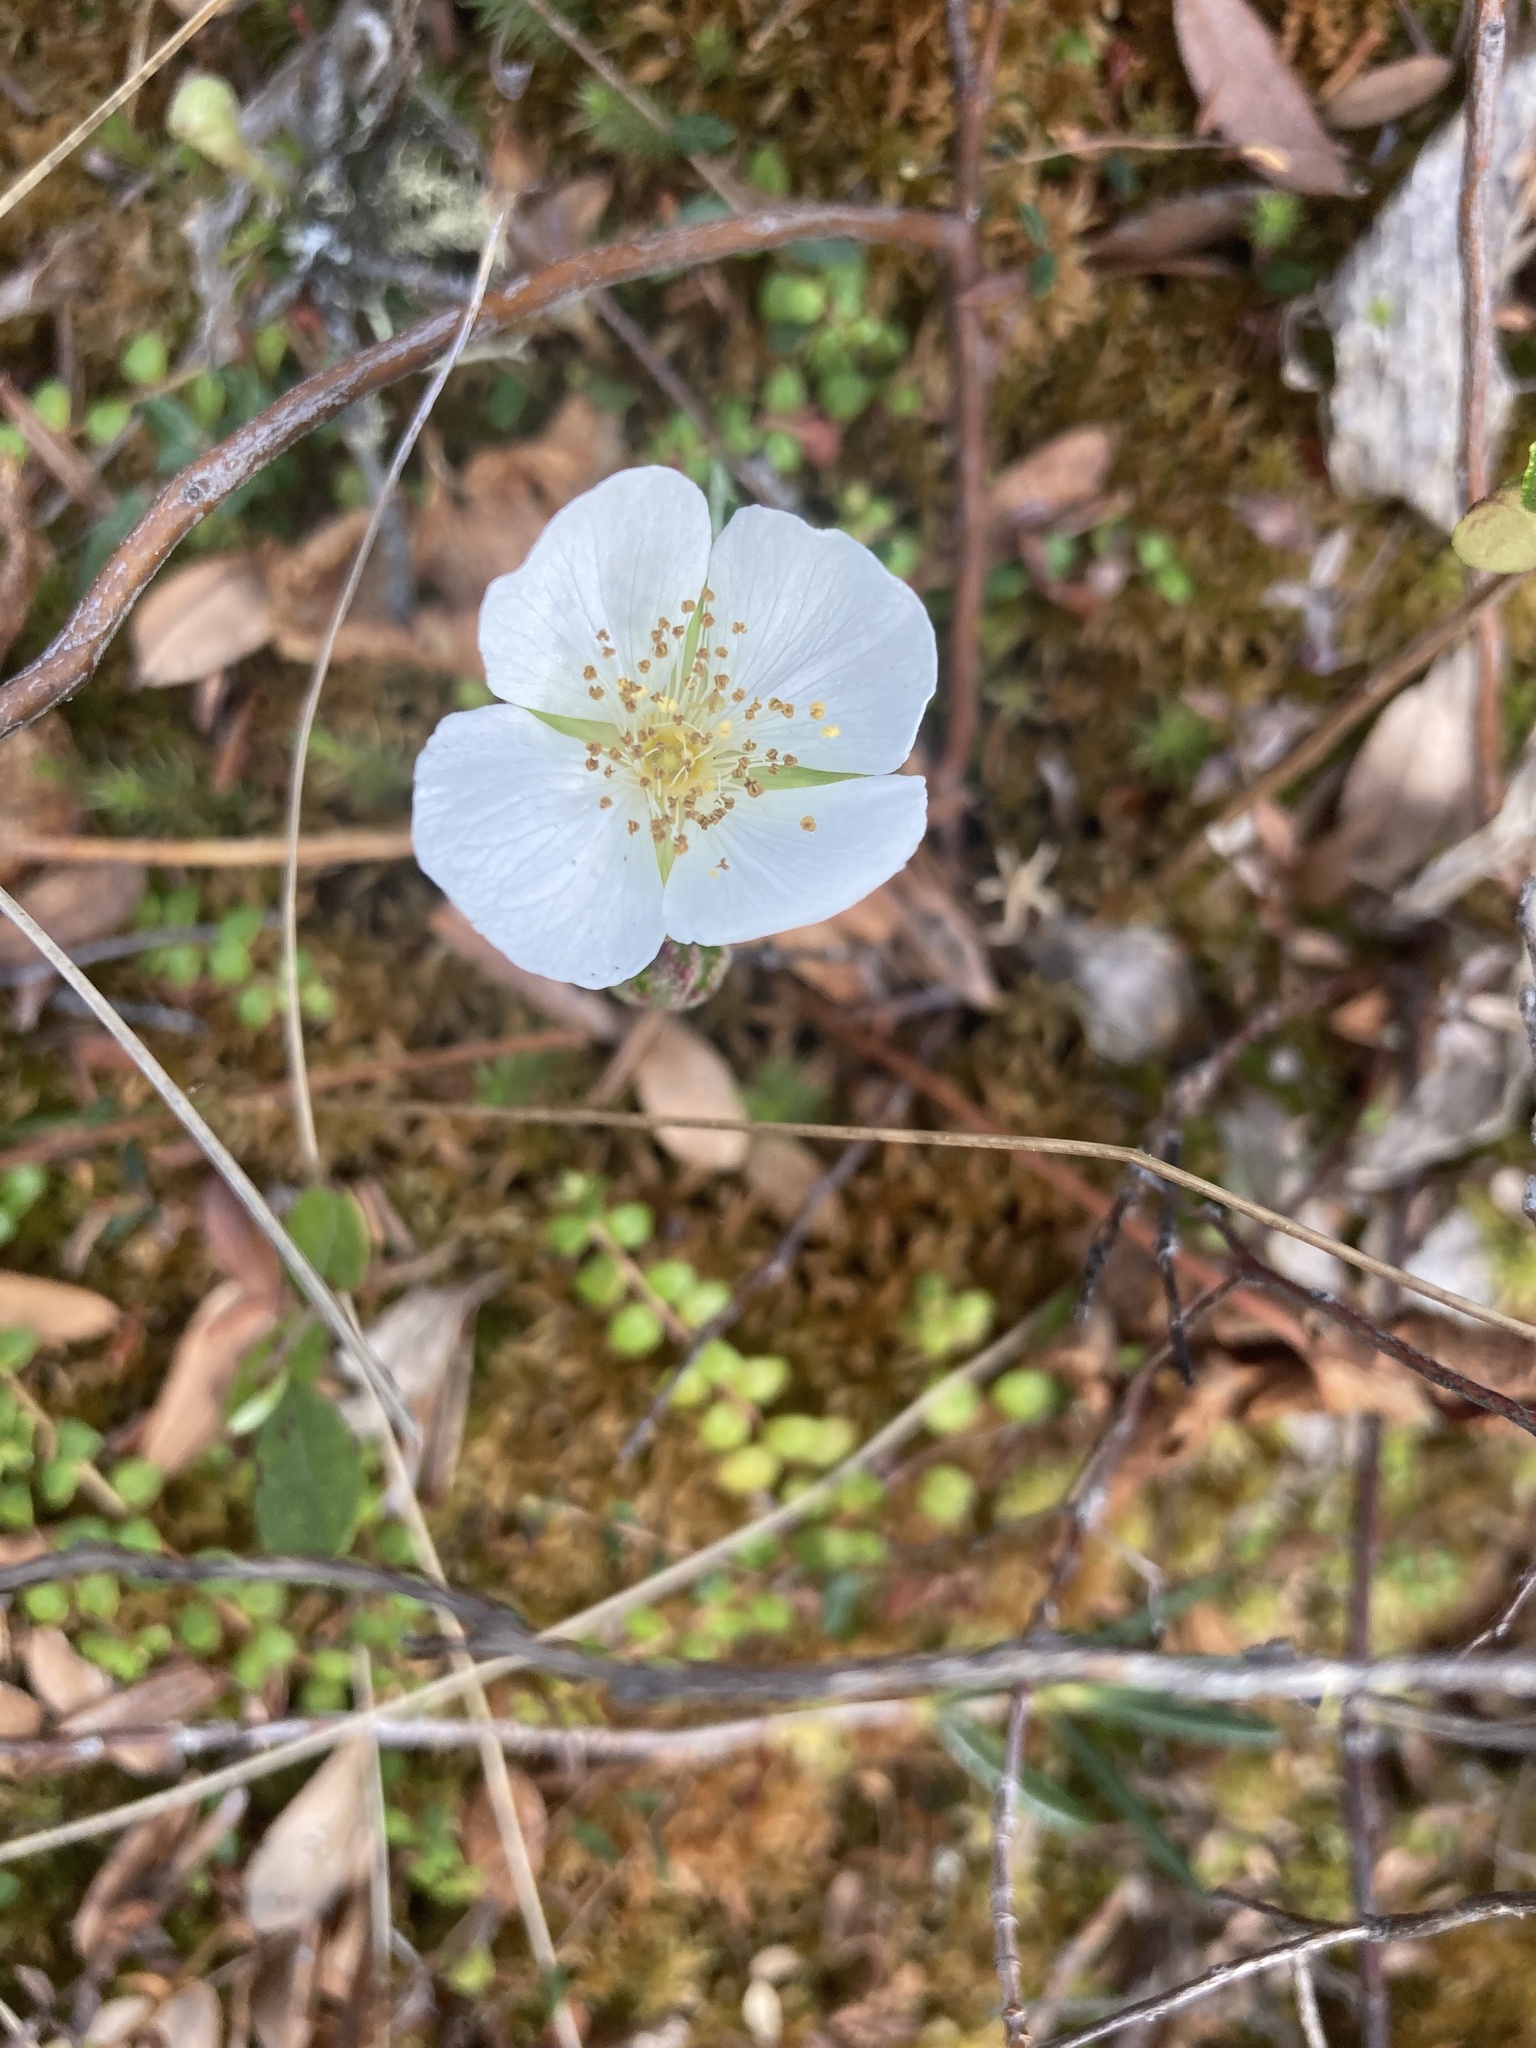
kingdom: Plantae
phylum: Tracheophyta
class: Magnoliopsida
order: Rosales
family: Rosaceae
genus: Rubus
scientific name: Rubus chamaemorus
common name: Cloudberry
